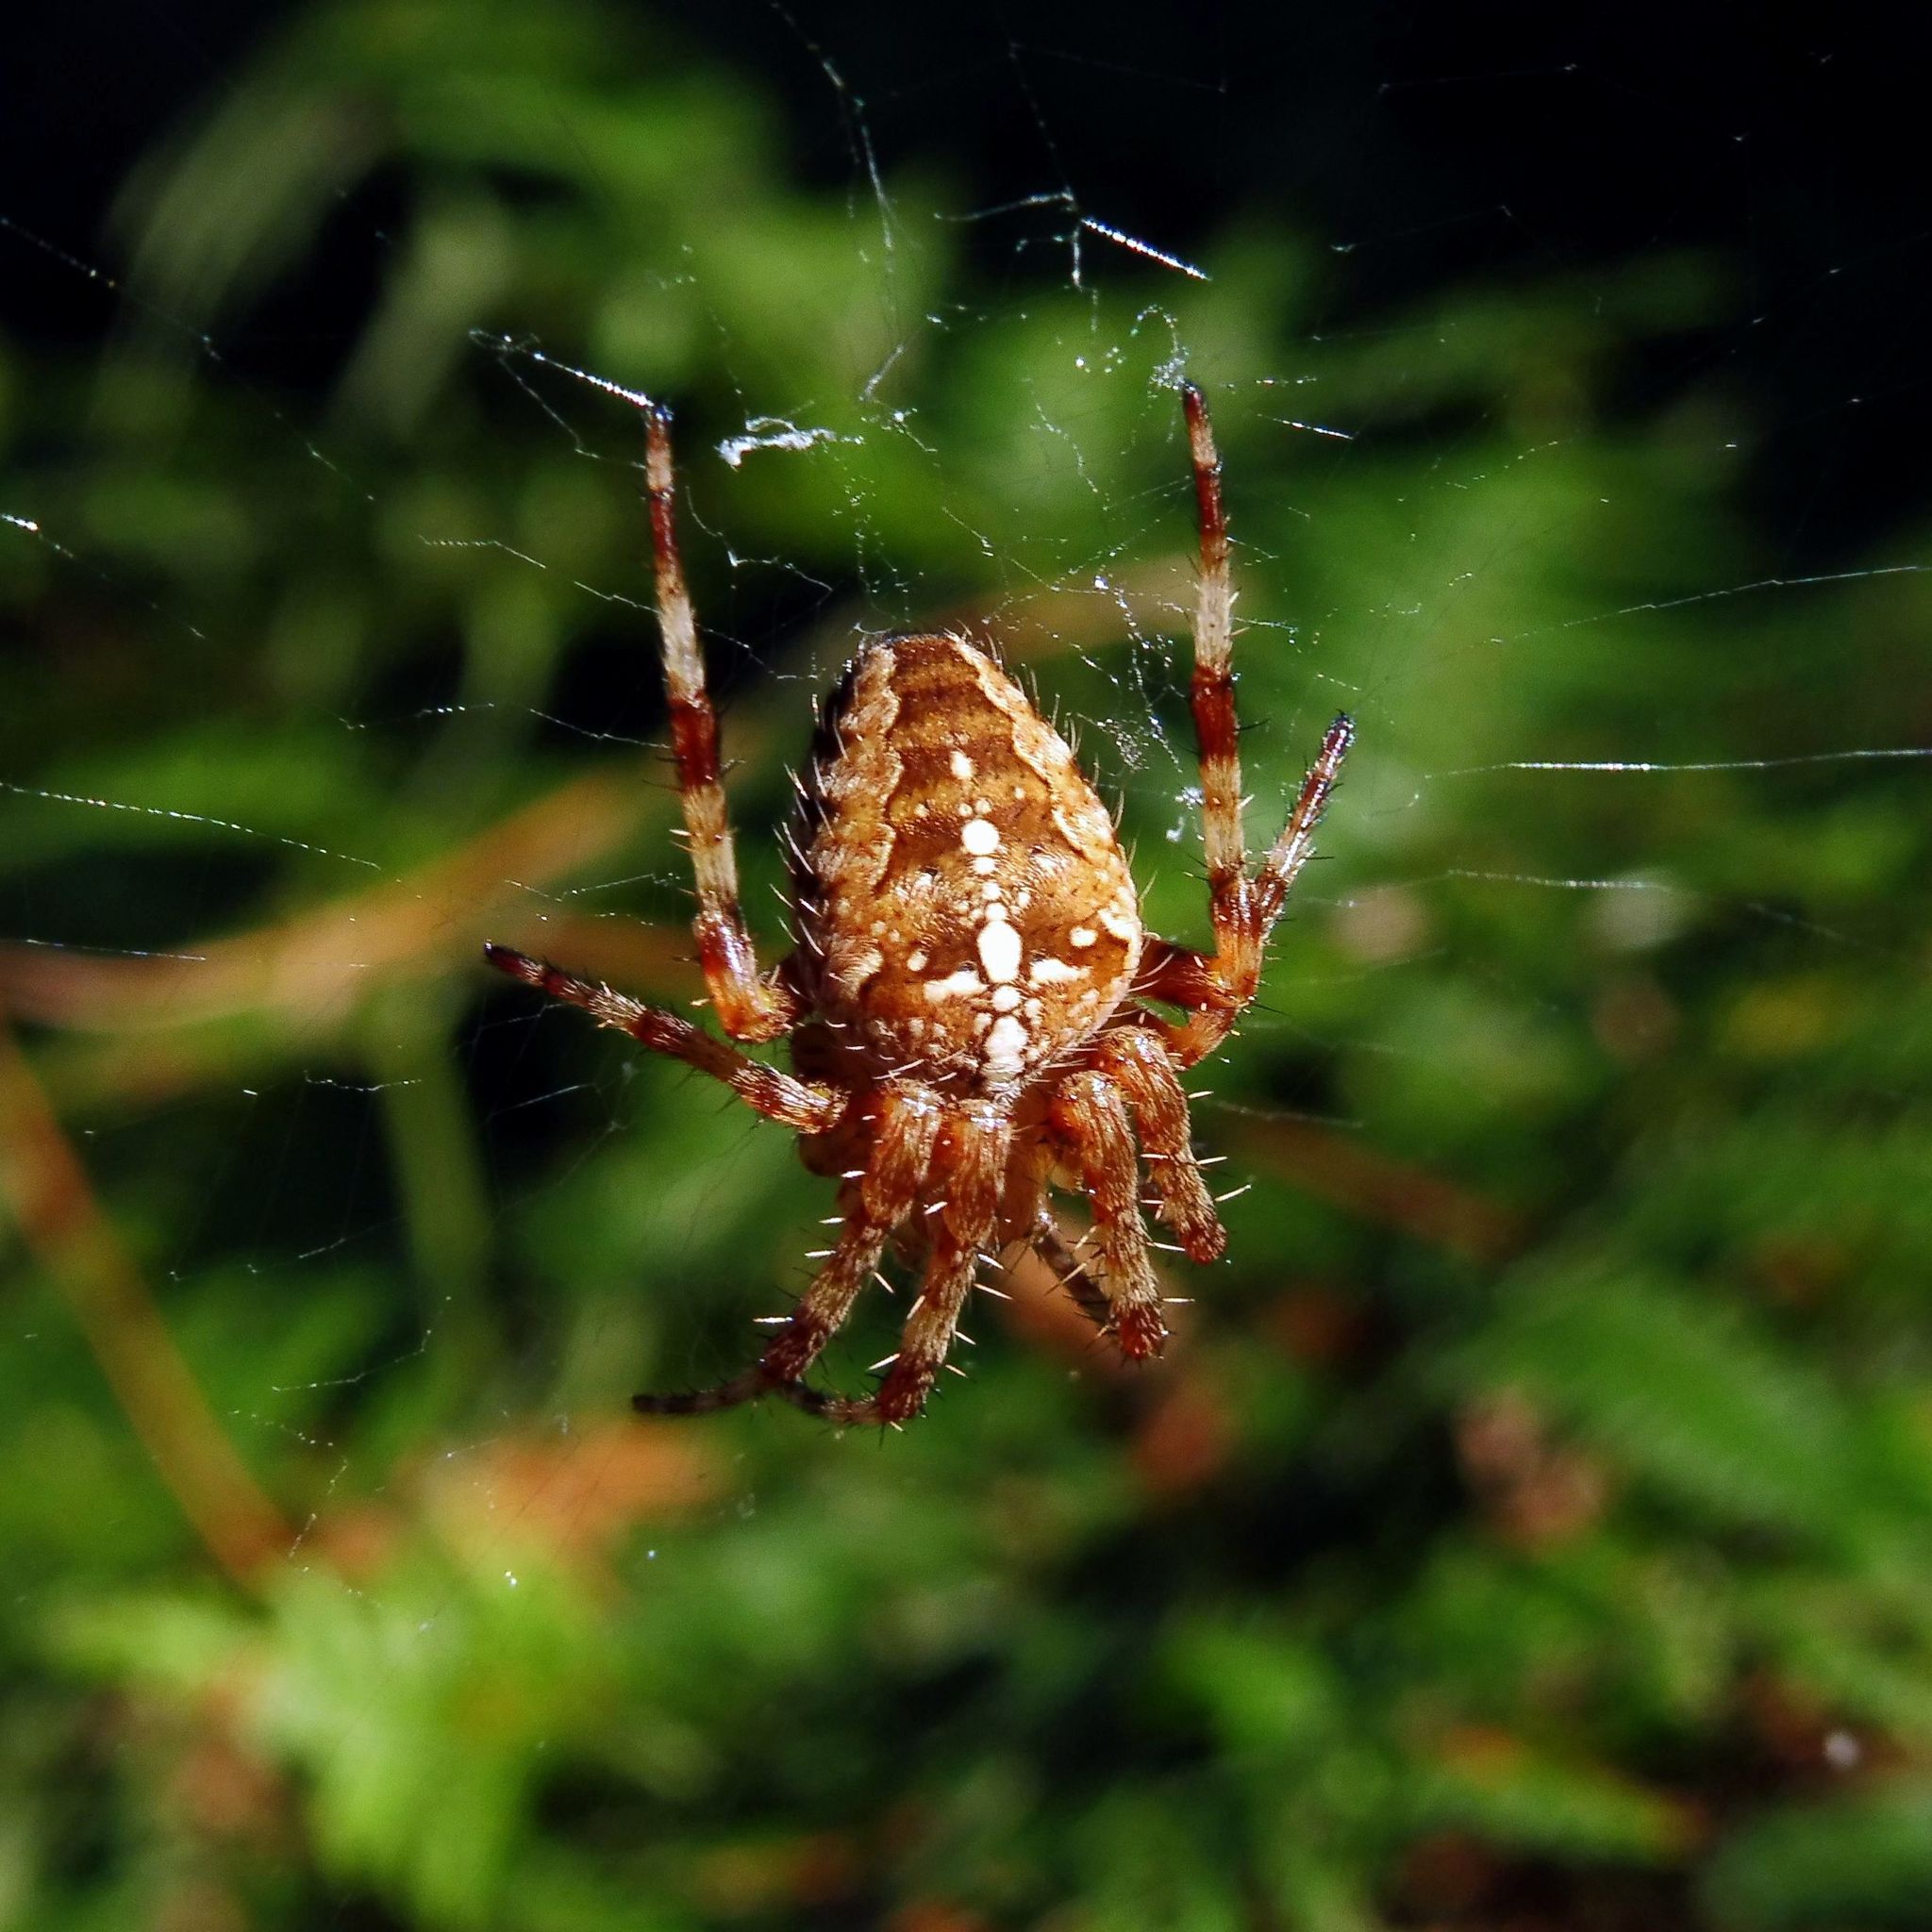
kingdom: Animalia
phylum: Arthropoda
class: Arachnida
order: Araneae
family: Araneidae
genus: Araneus
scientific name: Araneus diadematus
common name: Cross orbweaver
